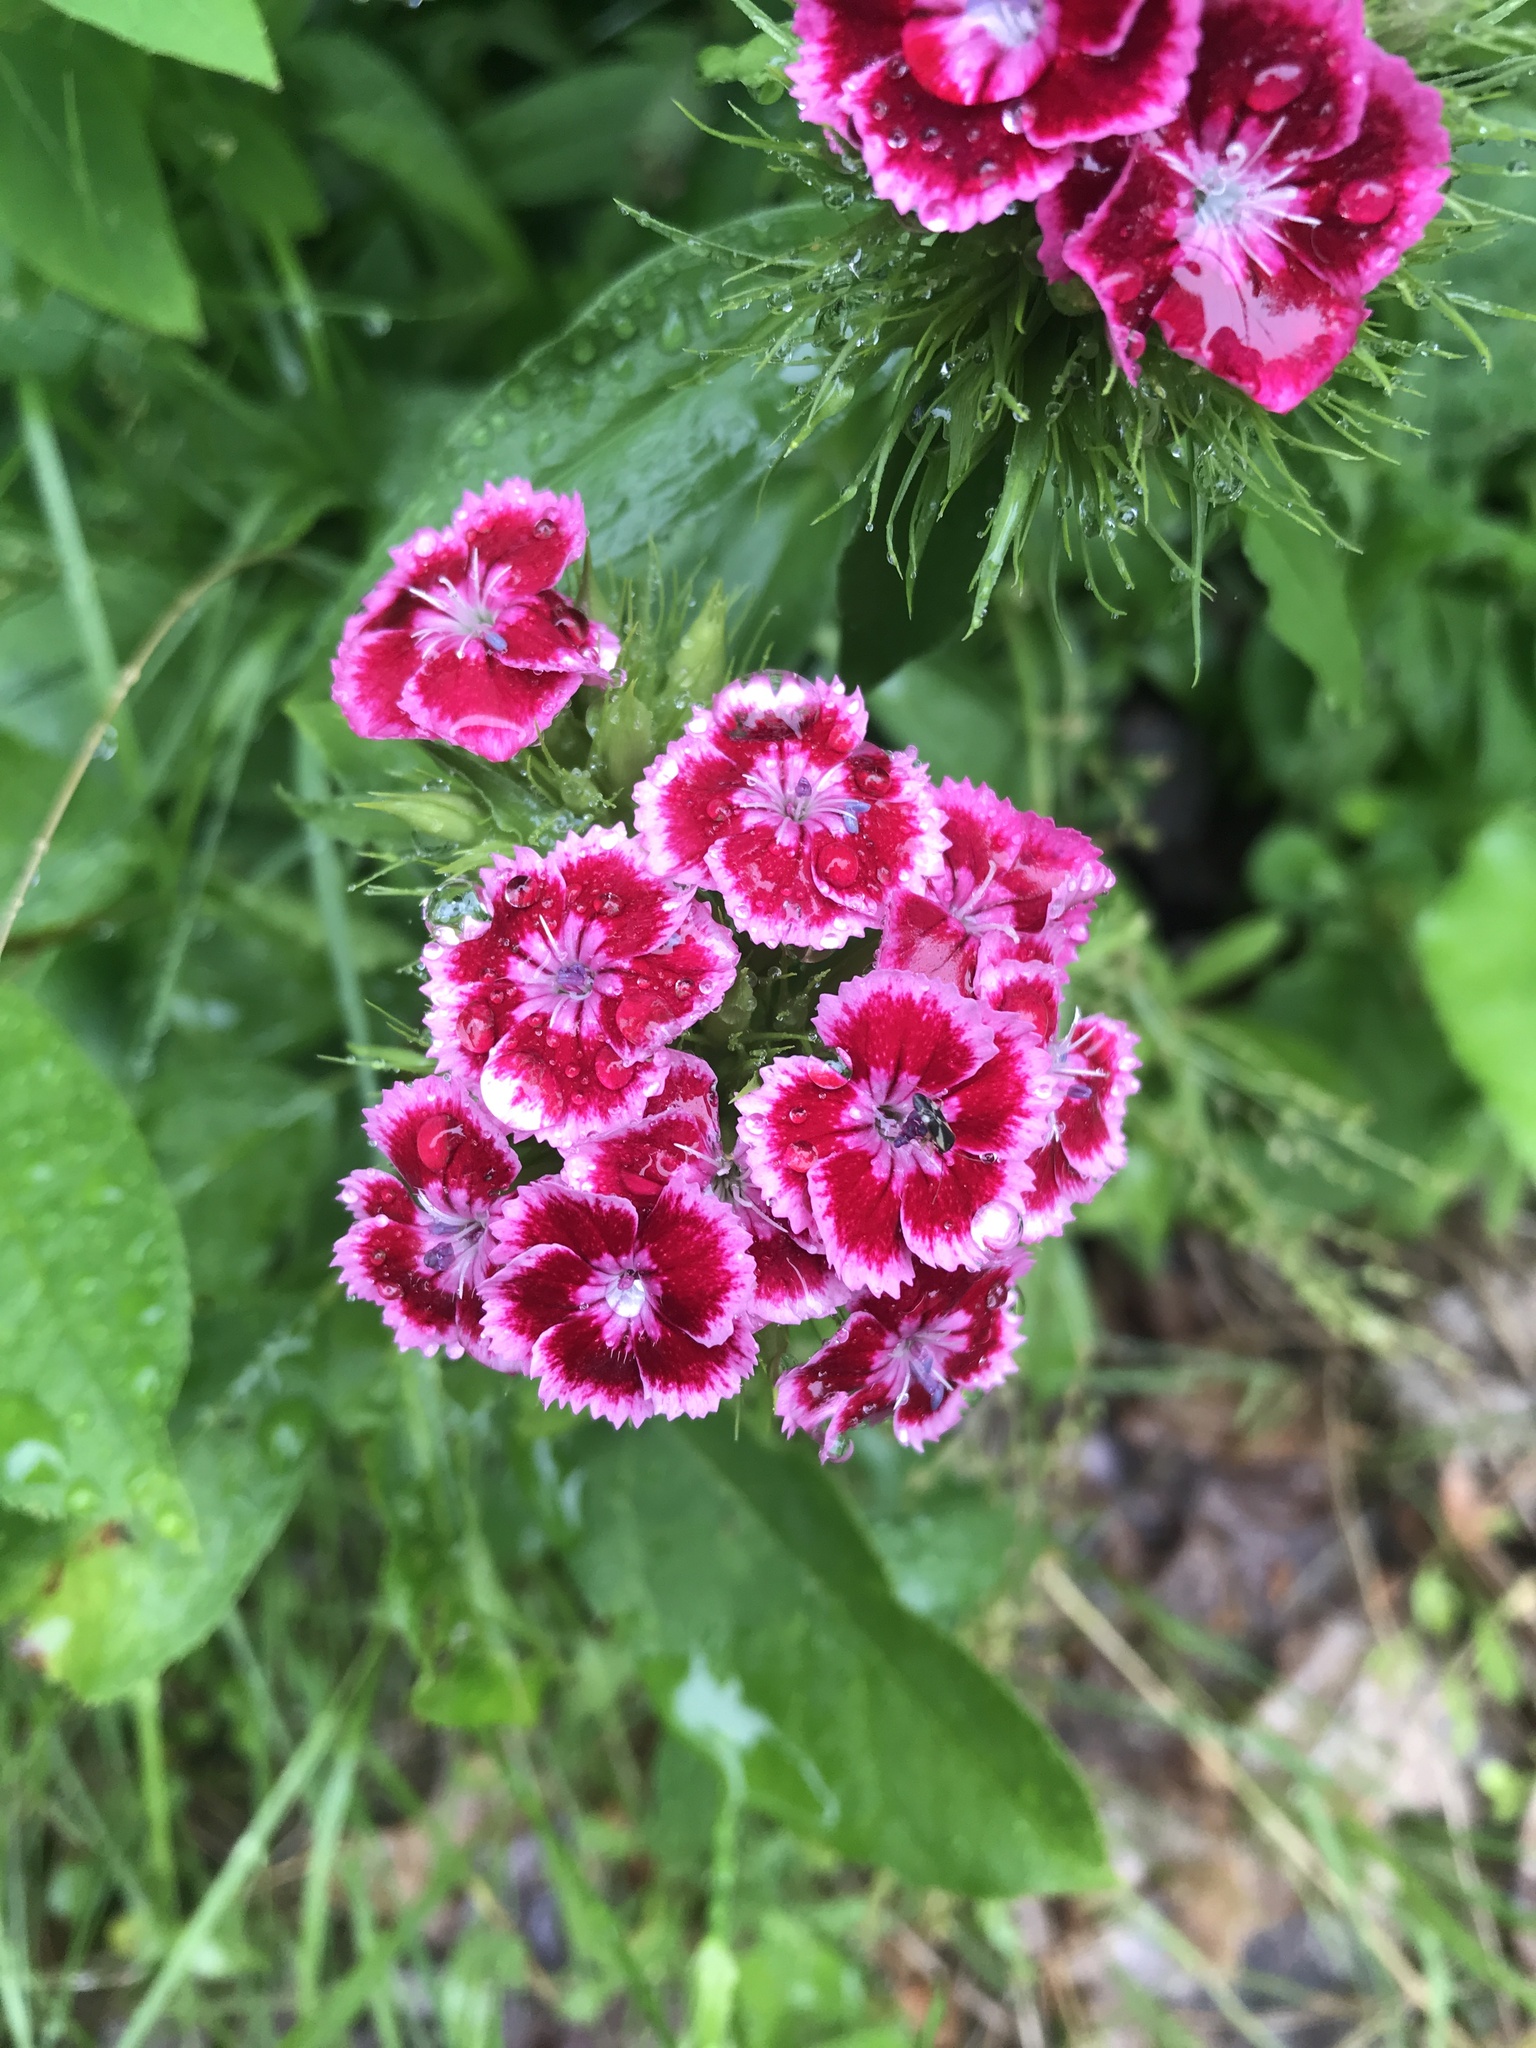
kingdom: Plantae
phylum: Tracheophyta
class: Magnoliopsida
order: Caryophyllales
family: Caryophyllaceae
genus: Dianthus
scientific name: Dianthus barbatus
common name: Sweet-william
